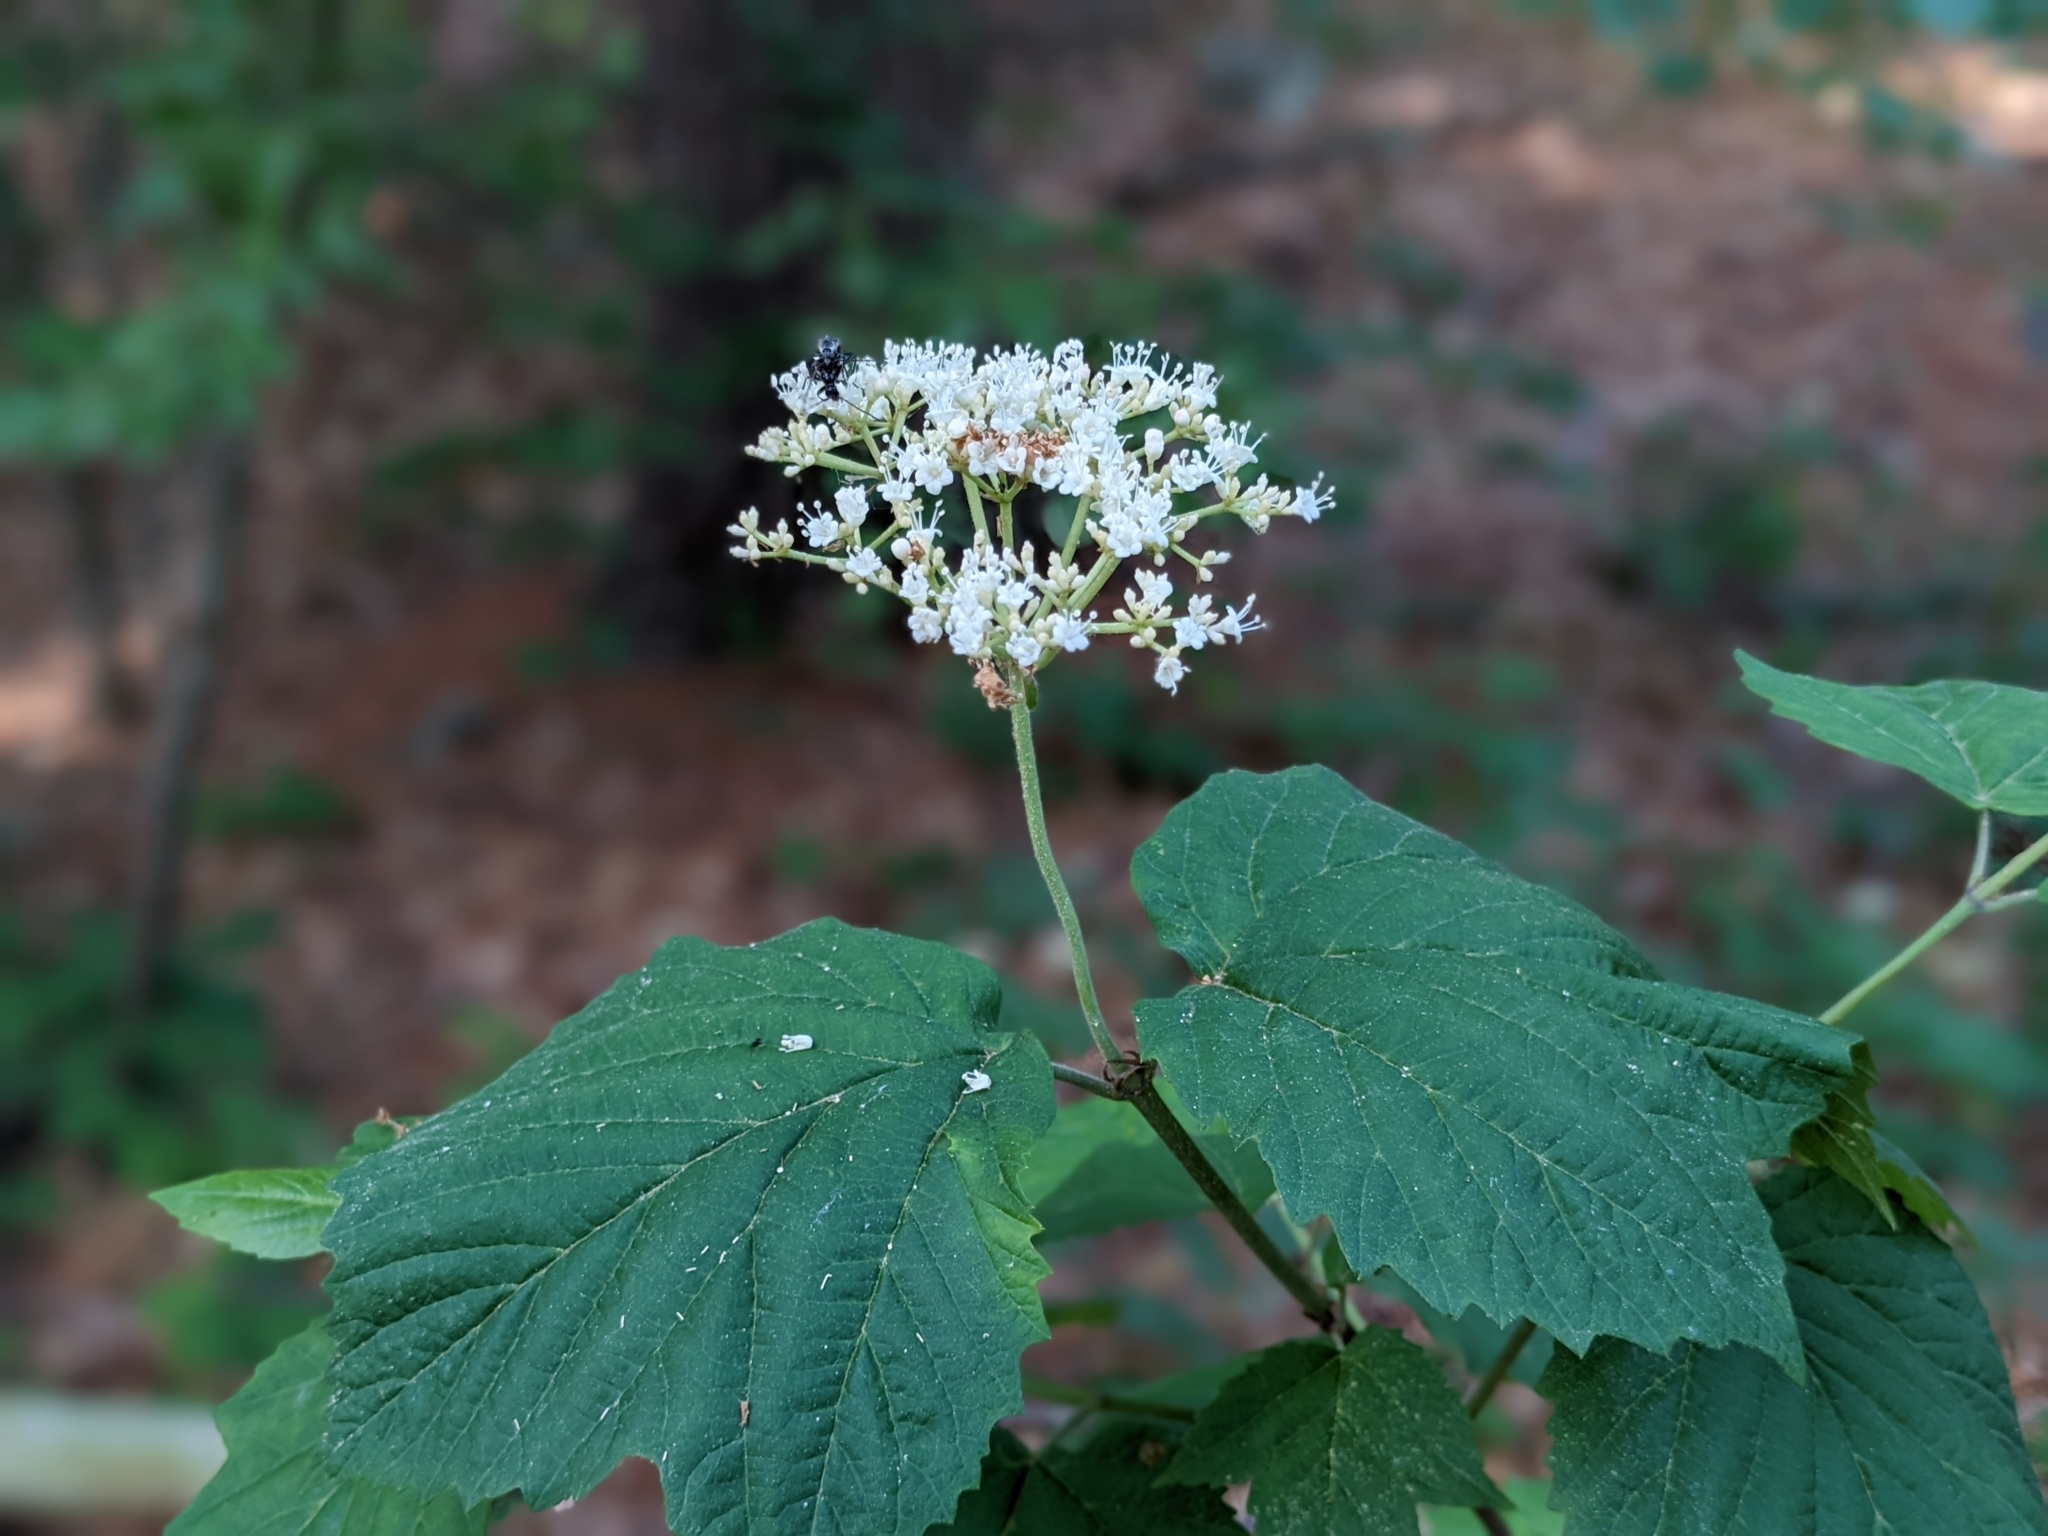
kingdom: Plantae
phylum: Tracheophyta
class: Magnoliopsida
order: Dipsacales
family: Viburnaceae
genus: Viburnum
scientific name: Viburnum acerifolium
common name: Dockmackie
